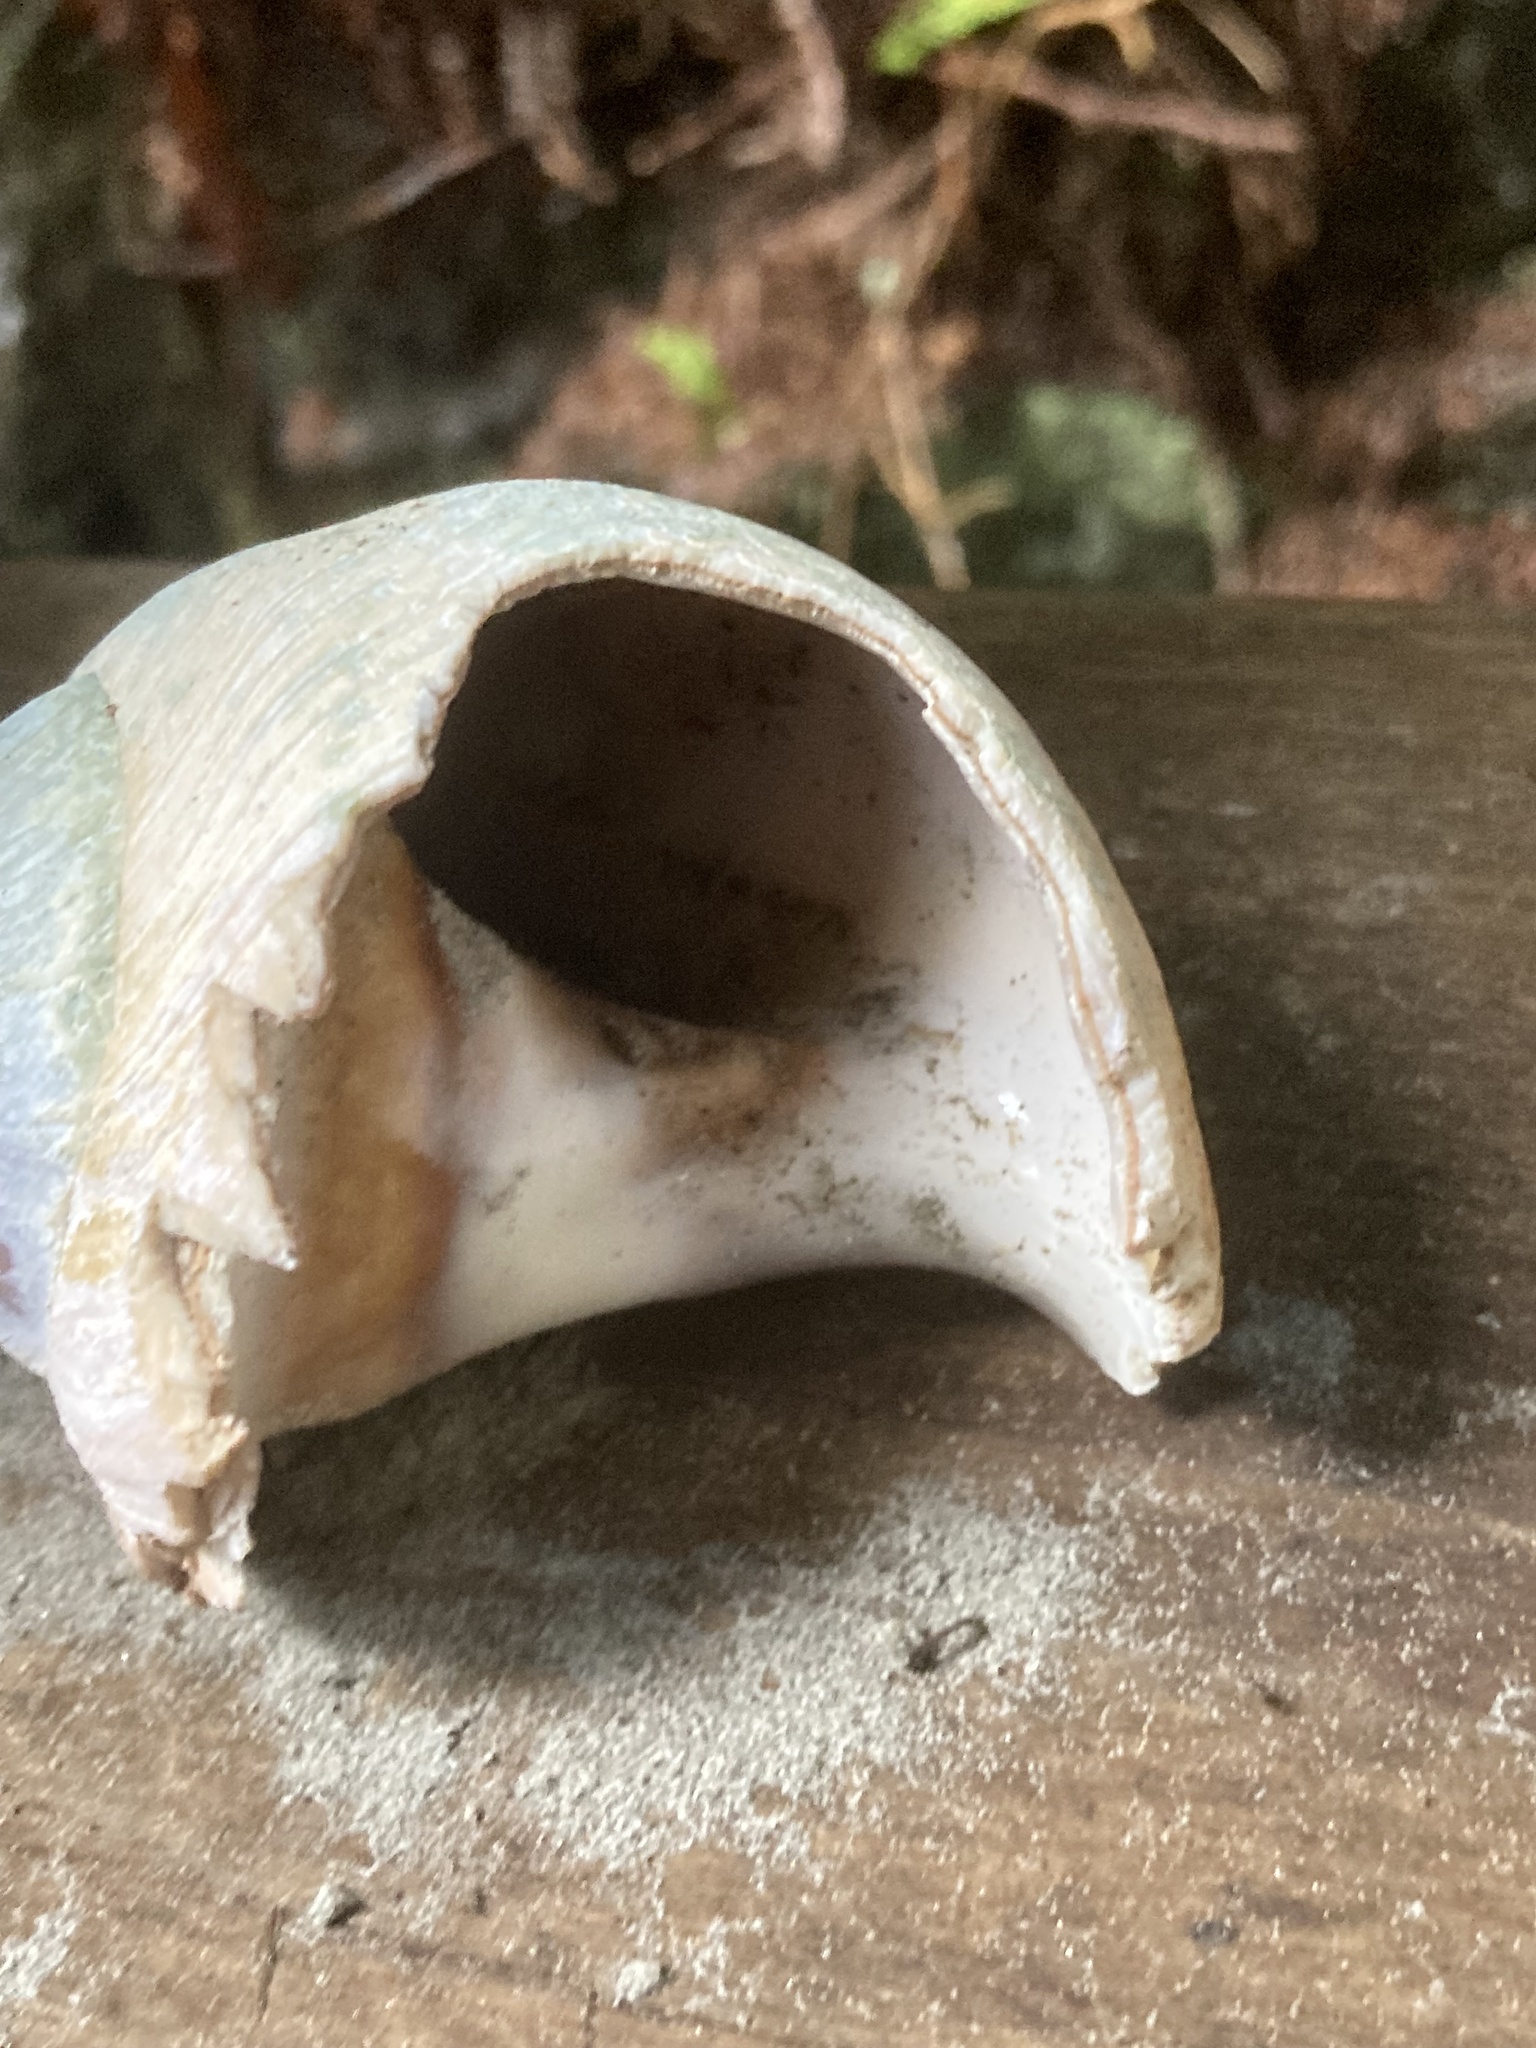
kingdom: Animalia
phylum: Mollusca
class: Gastropoda
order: Littorinimorpha
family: Naticidae
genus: Neverita
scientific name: Neverita lewisii
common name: Lewis' moonsnail
